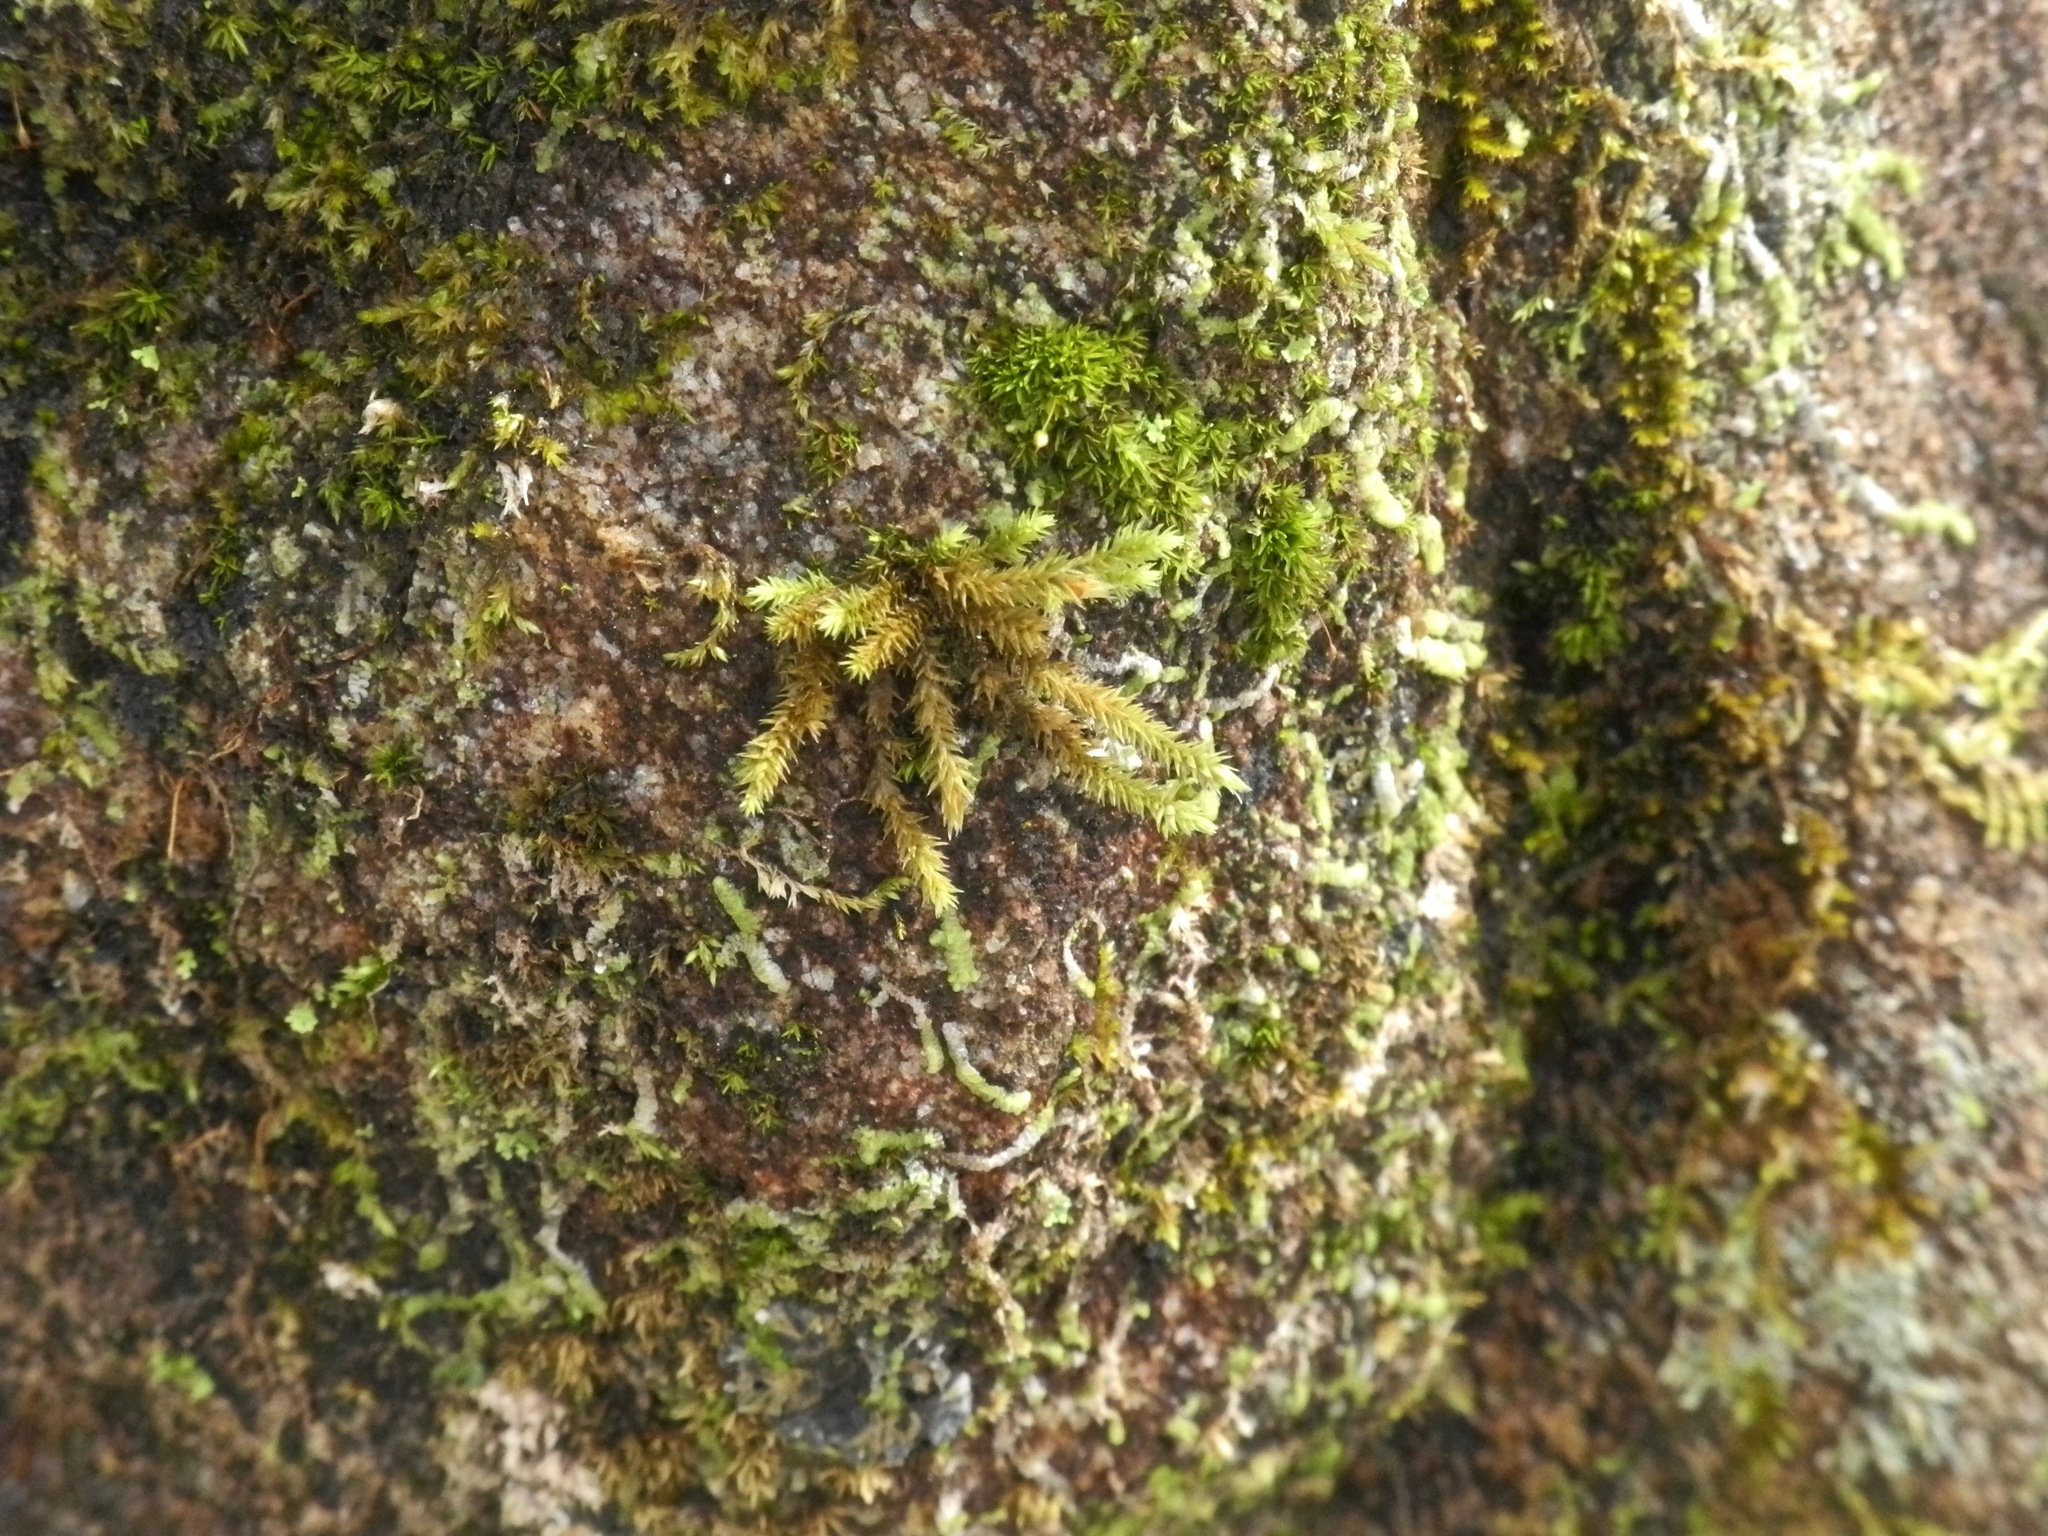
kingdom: Plantae
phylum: Bryophyta
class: Bryopsida
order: Hedwigiales
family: Hedwigiaceae
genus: Hedwigia
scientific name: Hedwigia ciliata
